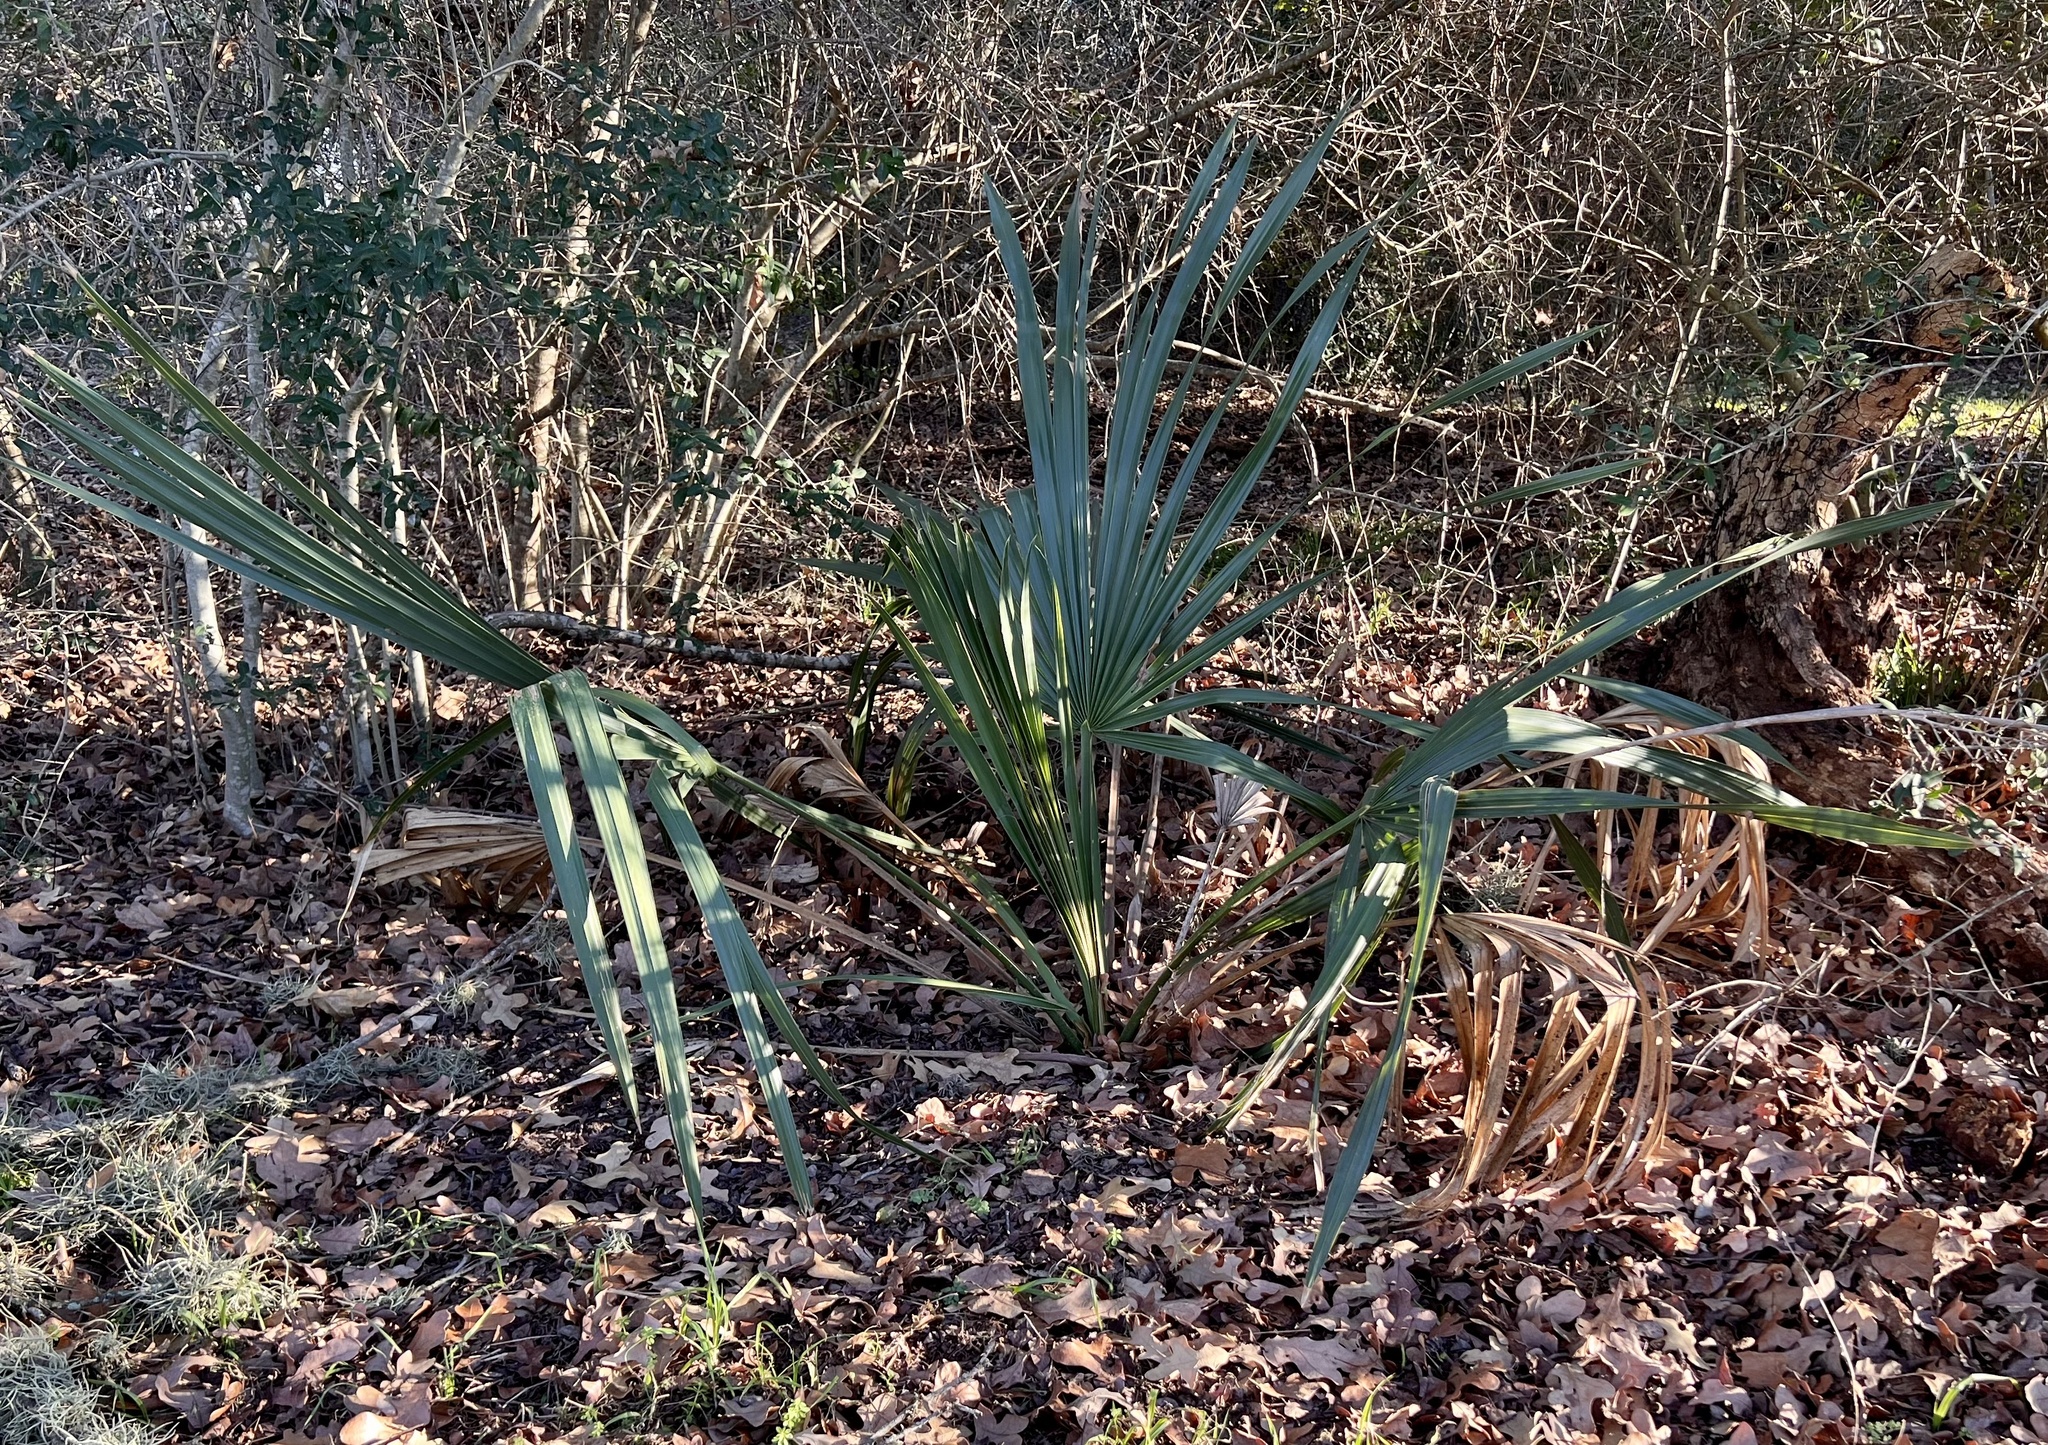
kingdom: Plantae
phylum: Tracheophyta
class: Liliopsida
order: Arecales
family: Arecaceae
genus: Sabal
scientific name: Sabal minor
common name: Dwarf palmetto
